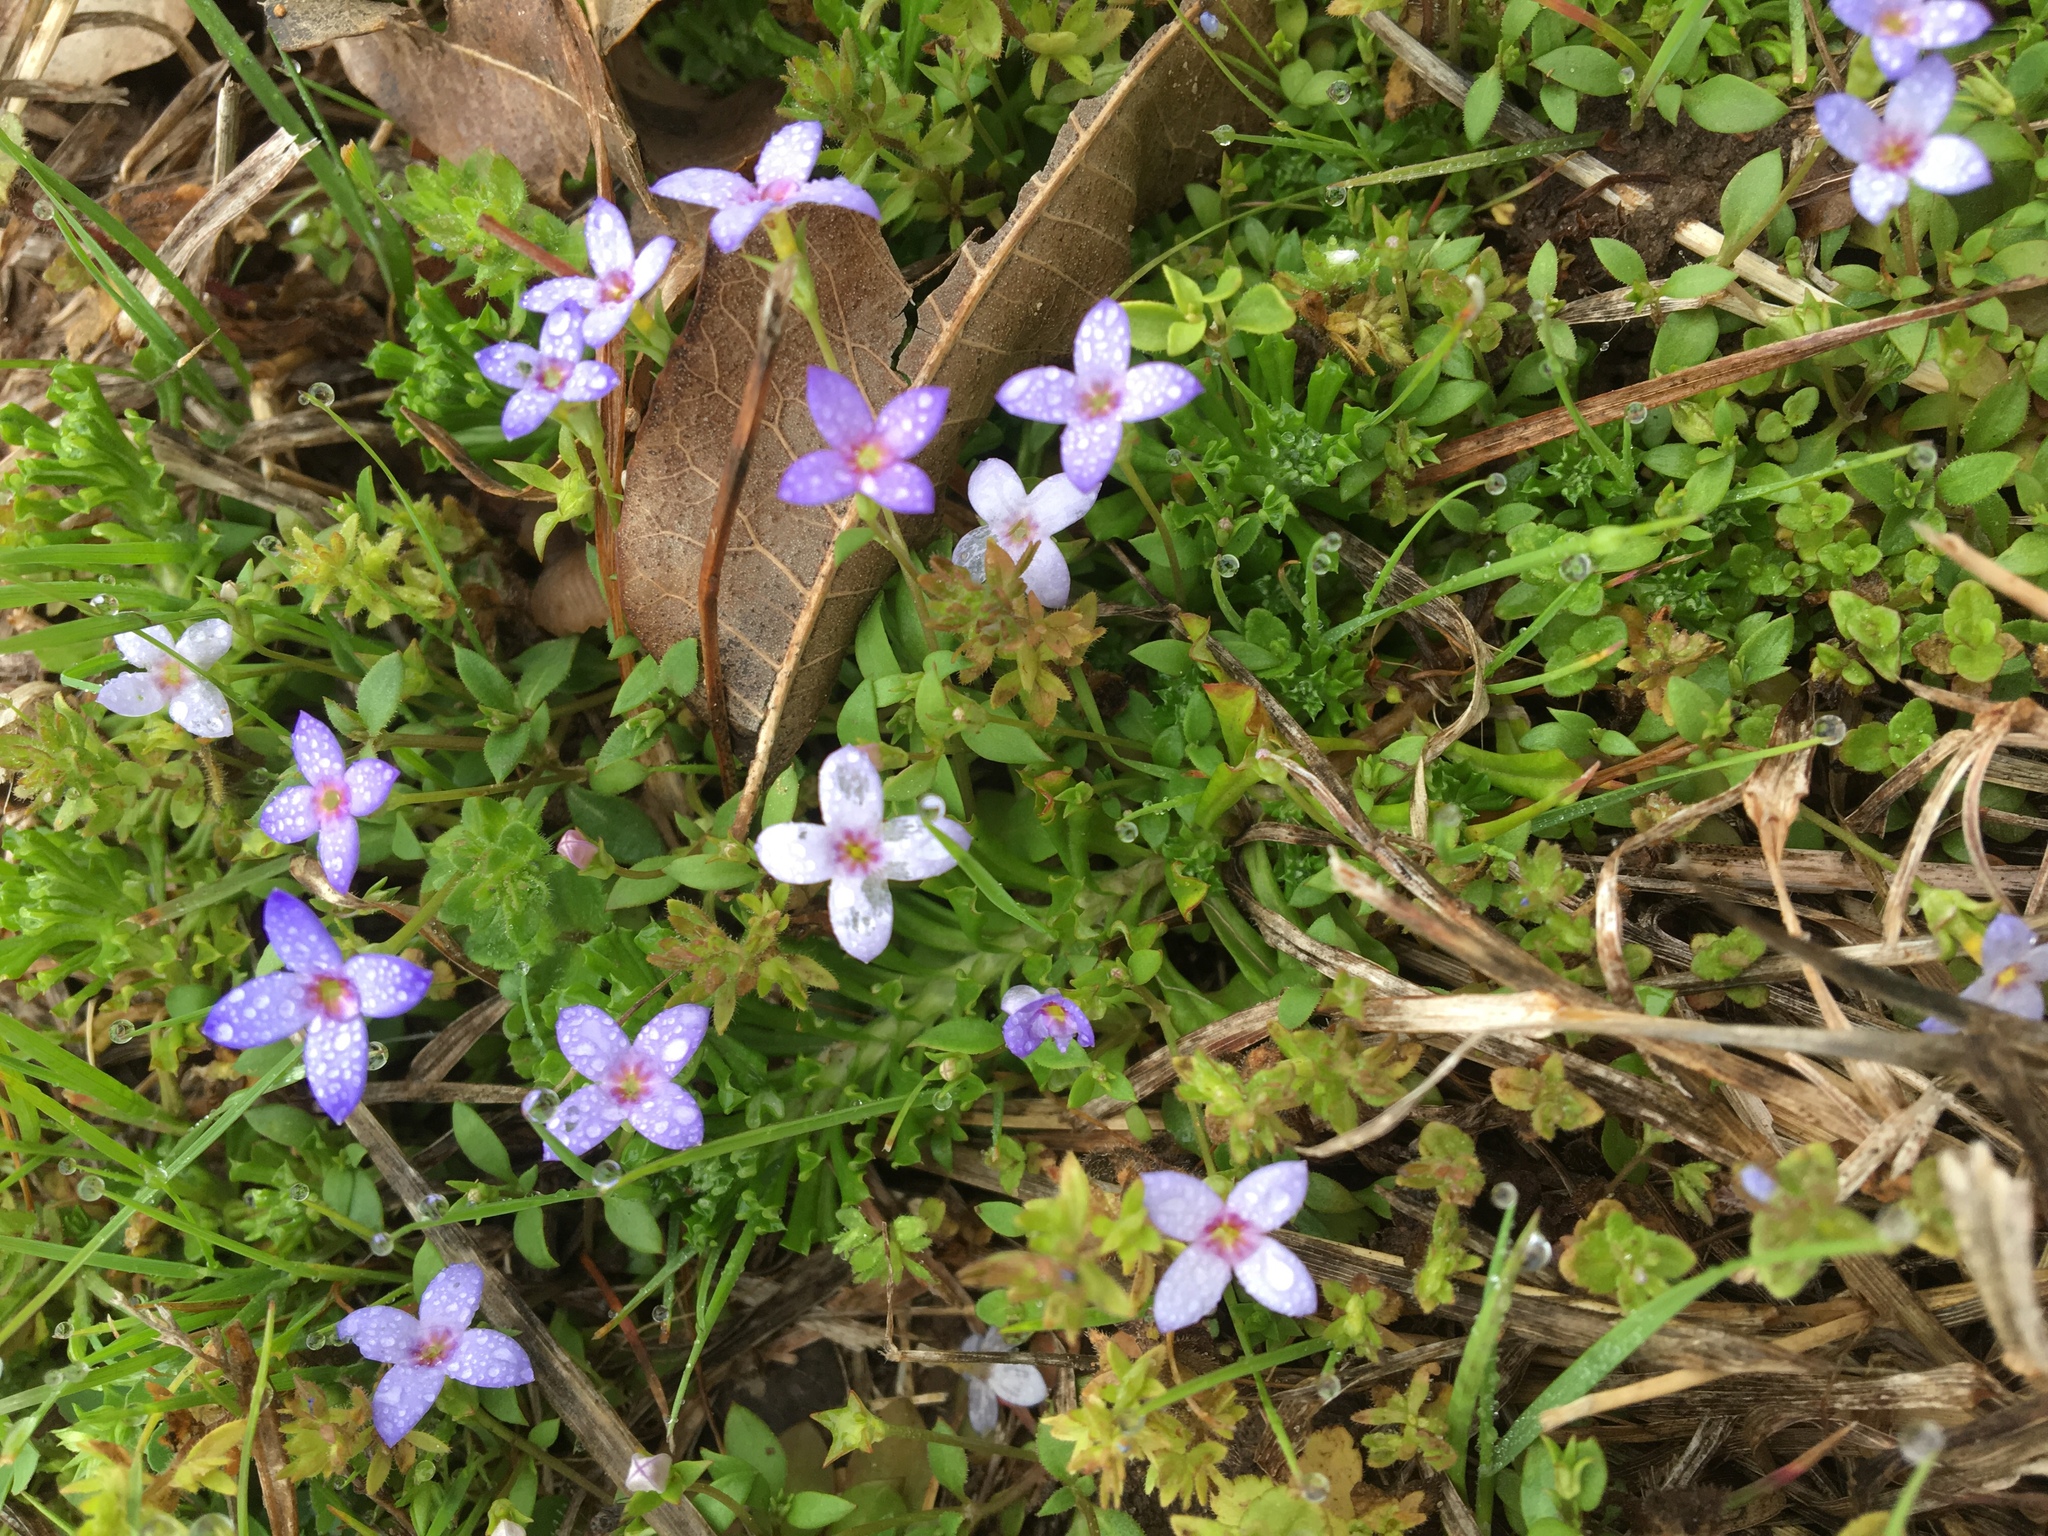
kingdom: Plantae
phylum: Tracheophyta
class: Magnoliopsida
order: Gentianales
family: Rubiaceae
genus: Houstonia
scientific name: Houstonia pusilla
